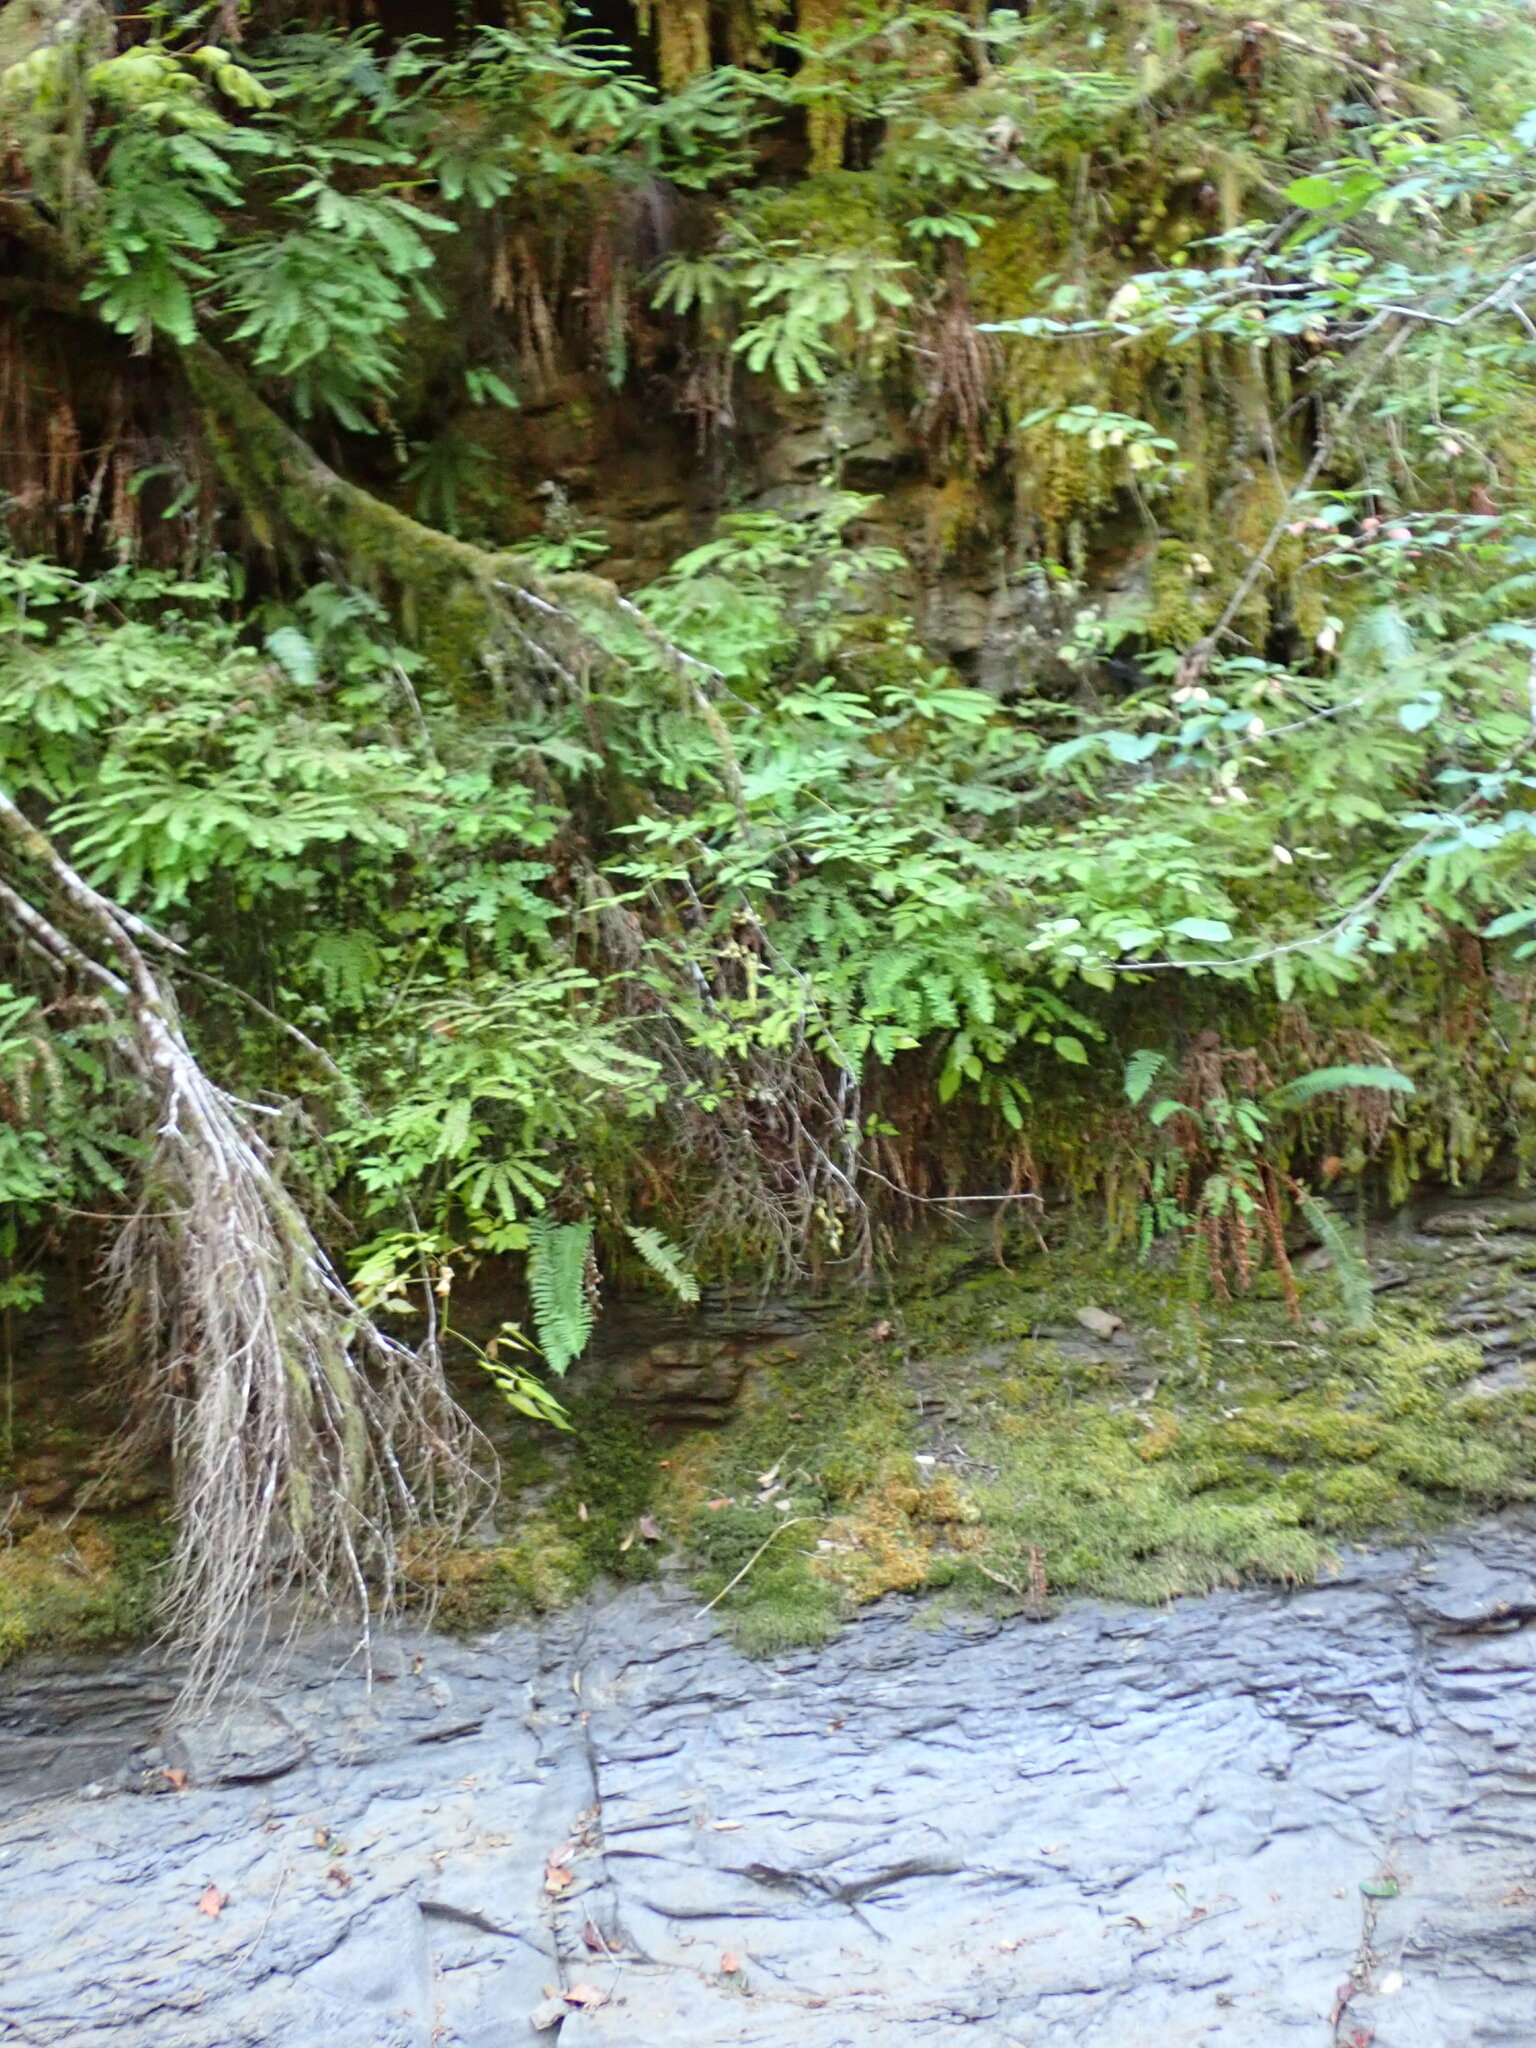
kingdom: Plantae
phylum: Tracheophyta
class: Polypodiopsida
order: Polypodiales
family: Pteridaceae
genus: Adiantum
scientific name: Adiantum aleuticum
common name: Aleutian maidenhair fern
